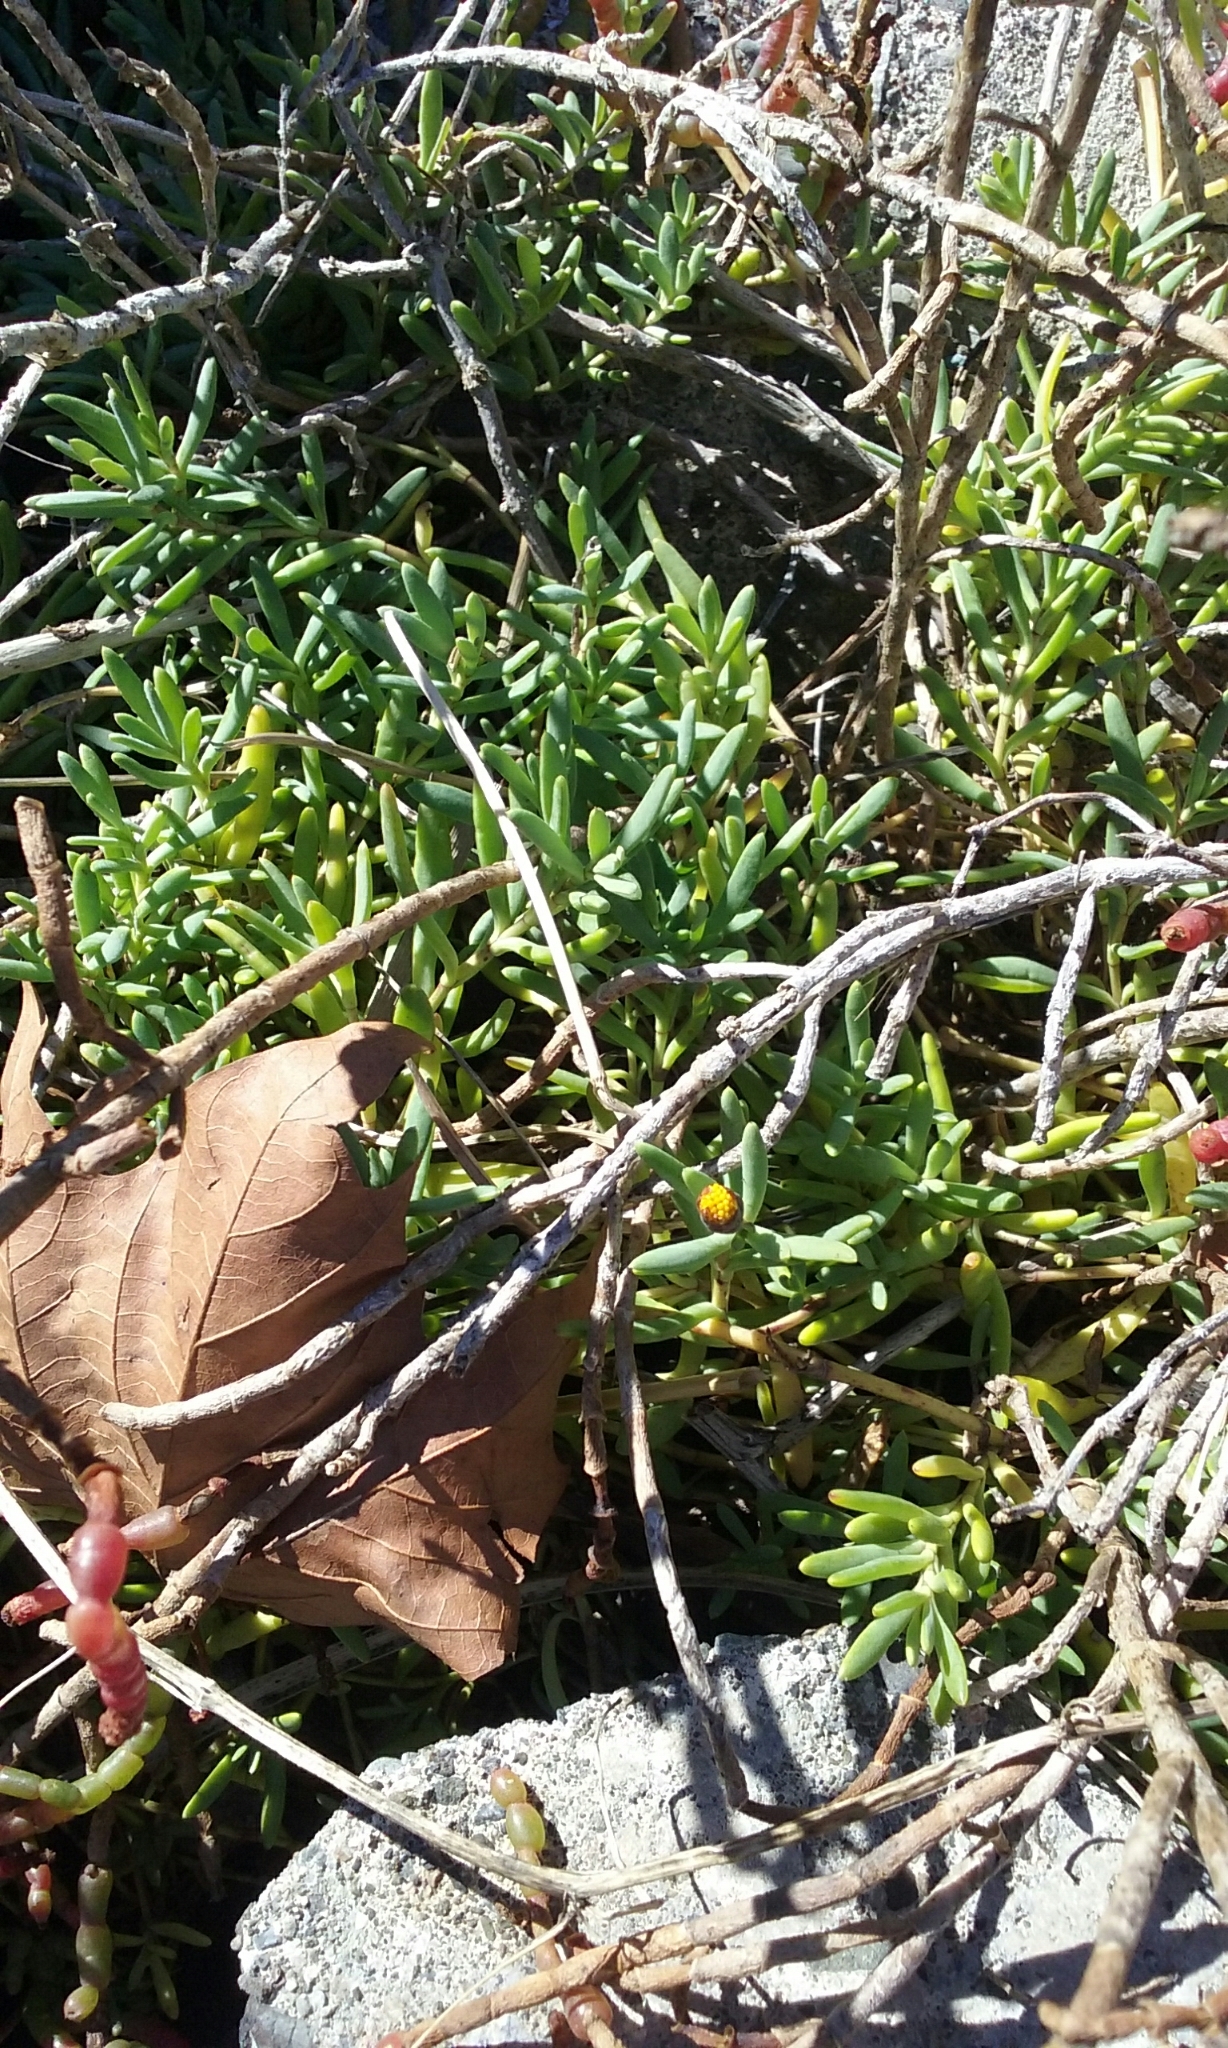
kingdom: Plantae
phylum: Tracheophyta
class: Magnoliopsida
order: Asterales
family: Asteraceae
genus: Jaumea
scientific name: Jaumea carnosa
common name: Fleshy jaumea
